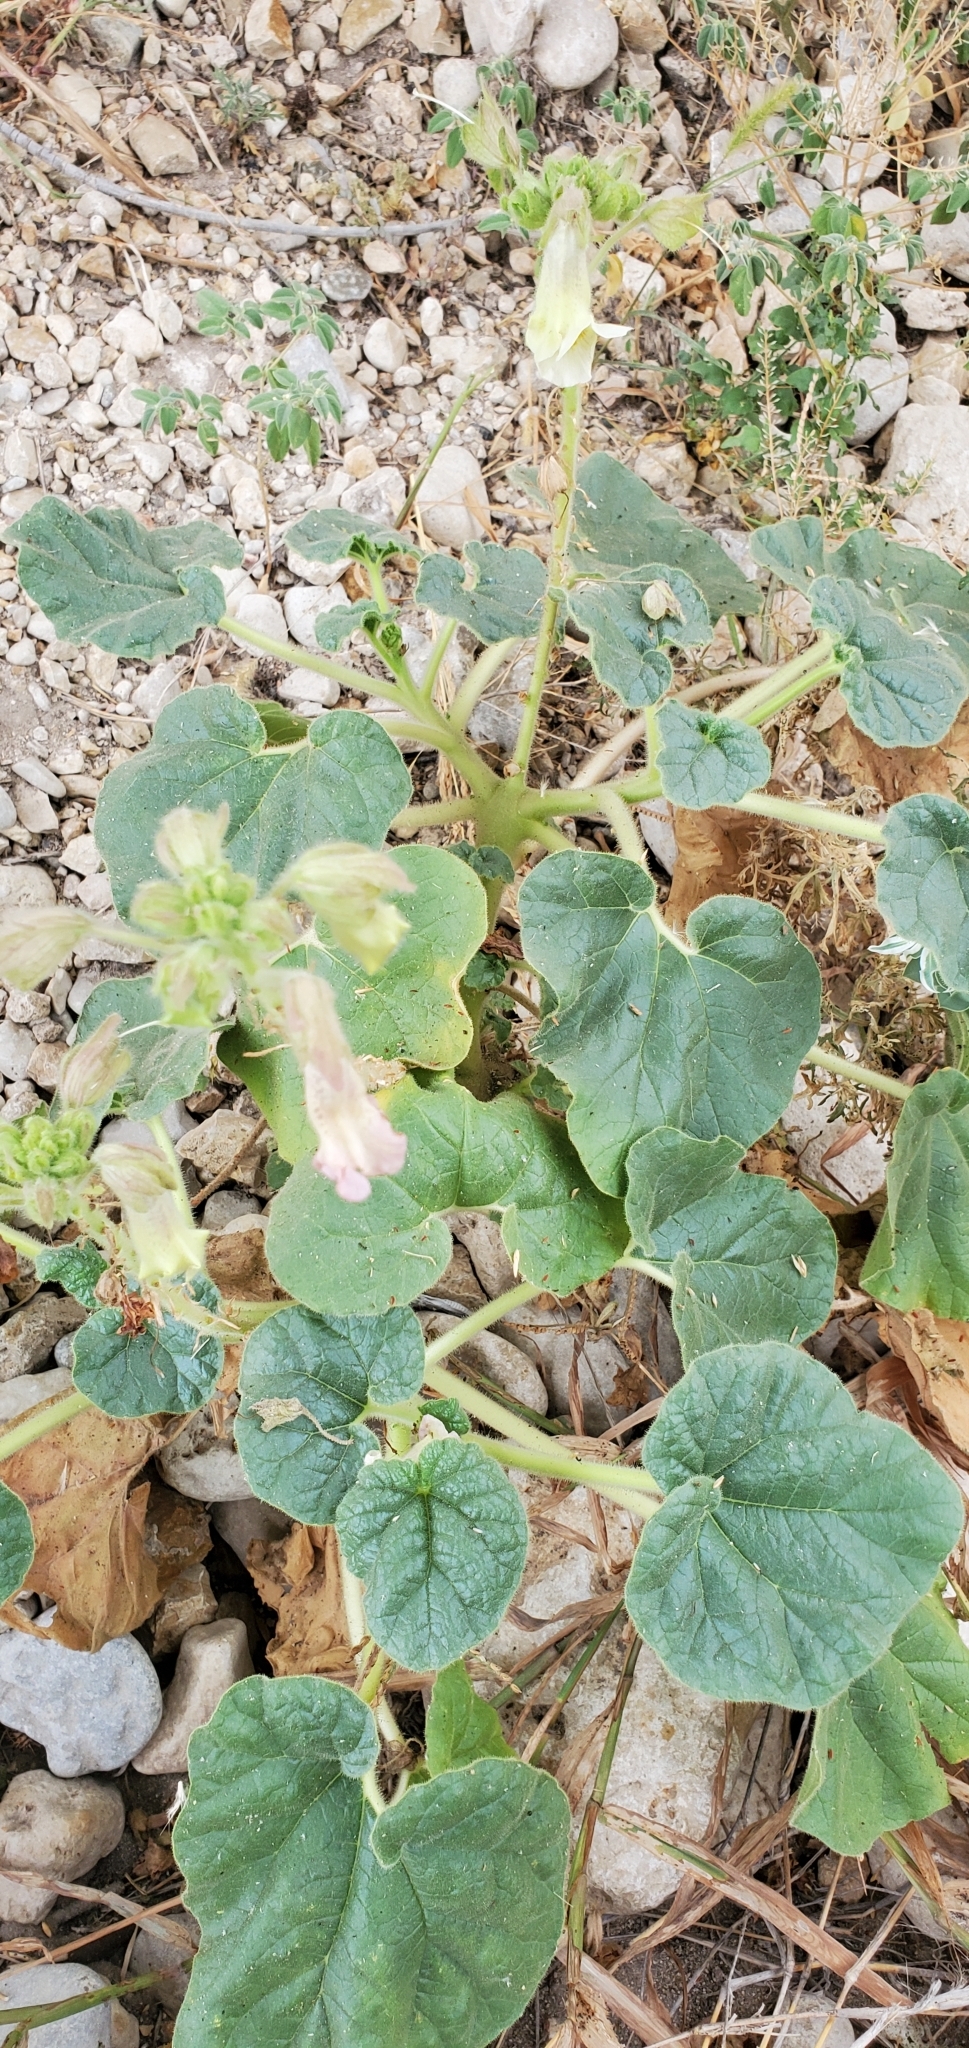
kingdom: Plantae
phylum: Tracheophyta
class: Magnoliopsida
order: Lamiales
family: Martyniaceae
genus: Proboscidea
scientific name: Proboscidea louisianica
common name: Elephant tusks
